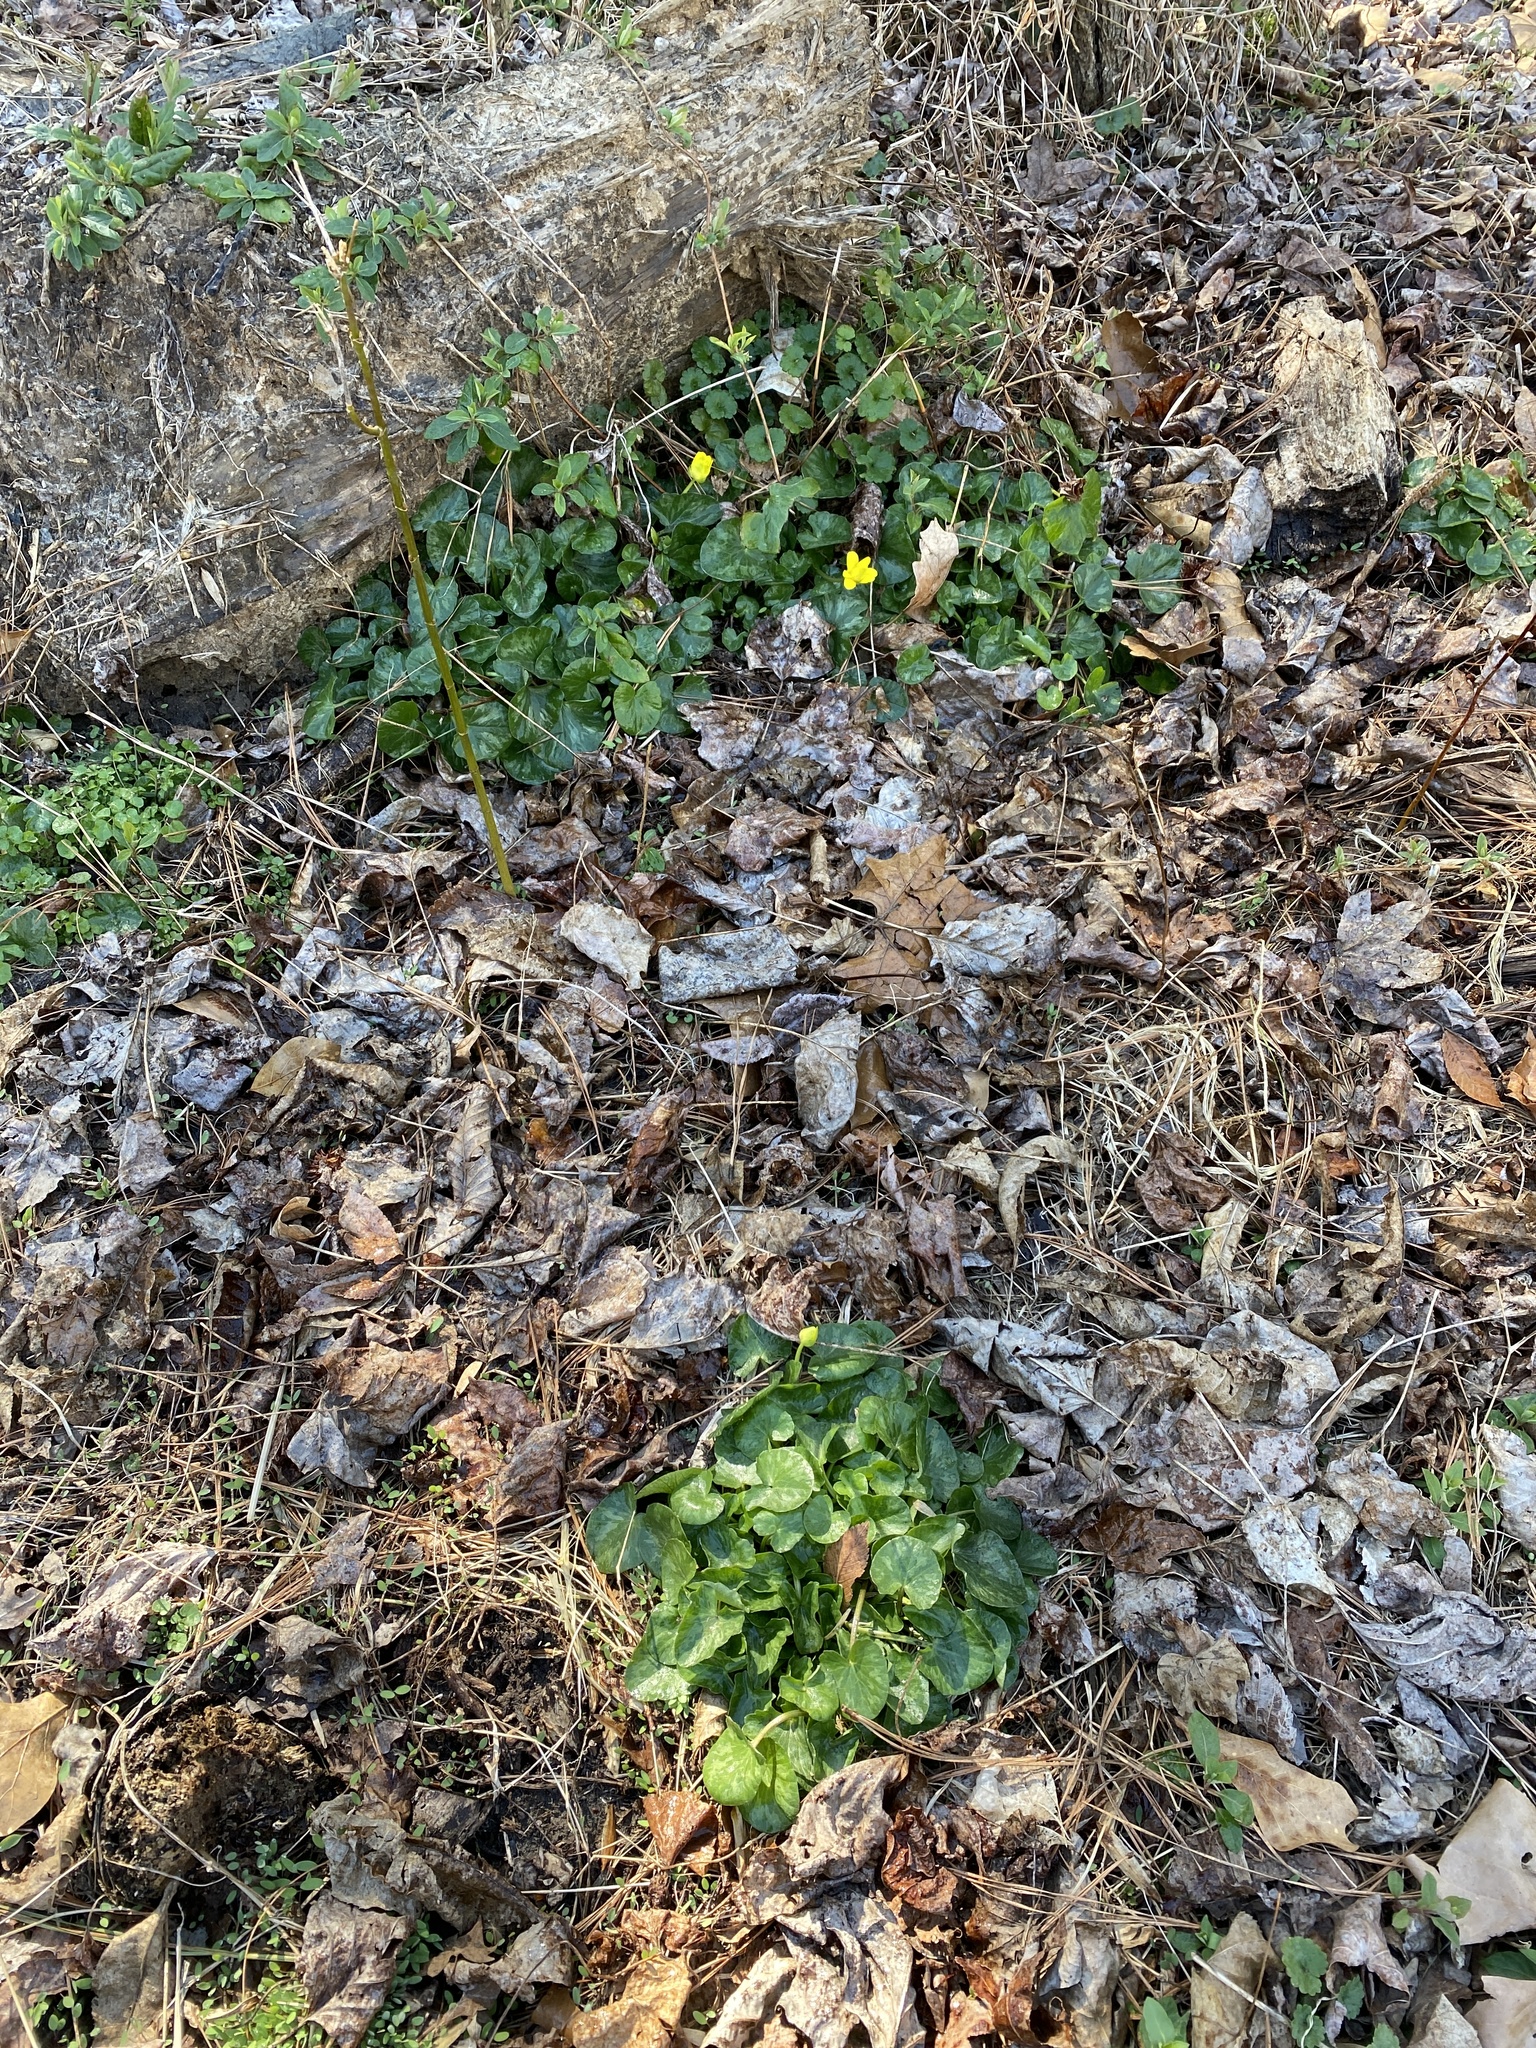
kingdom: Plantae
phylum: Tracheophyta
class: Magnoliopsida
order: Ranunculales
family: Ranunculaceae
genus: Ficaria
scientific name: Ficaria verna
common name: Lesser celandine
